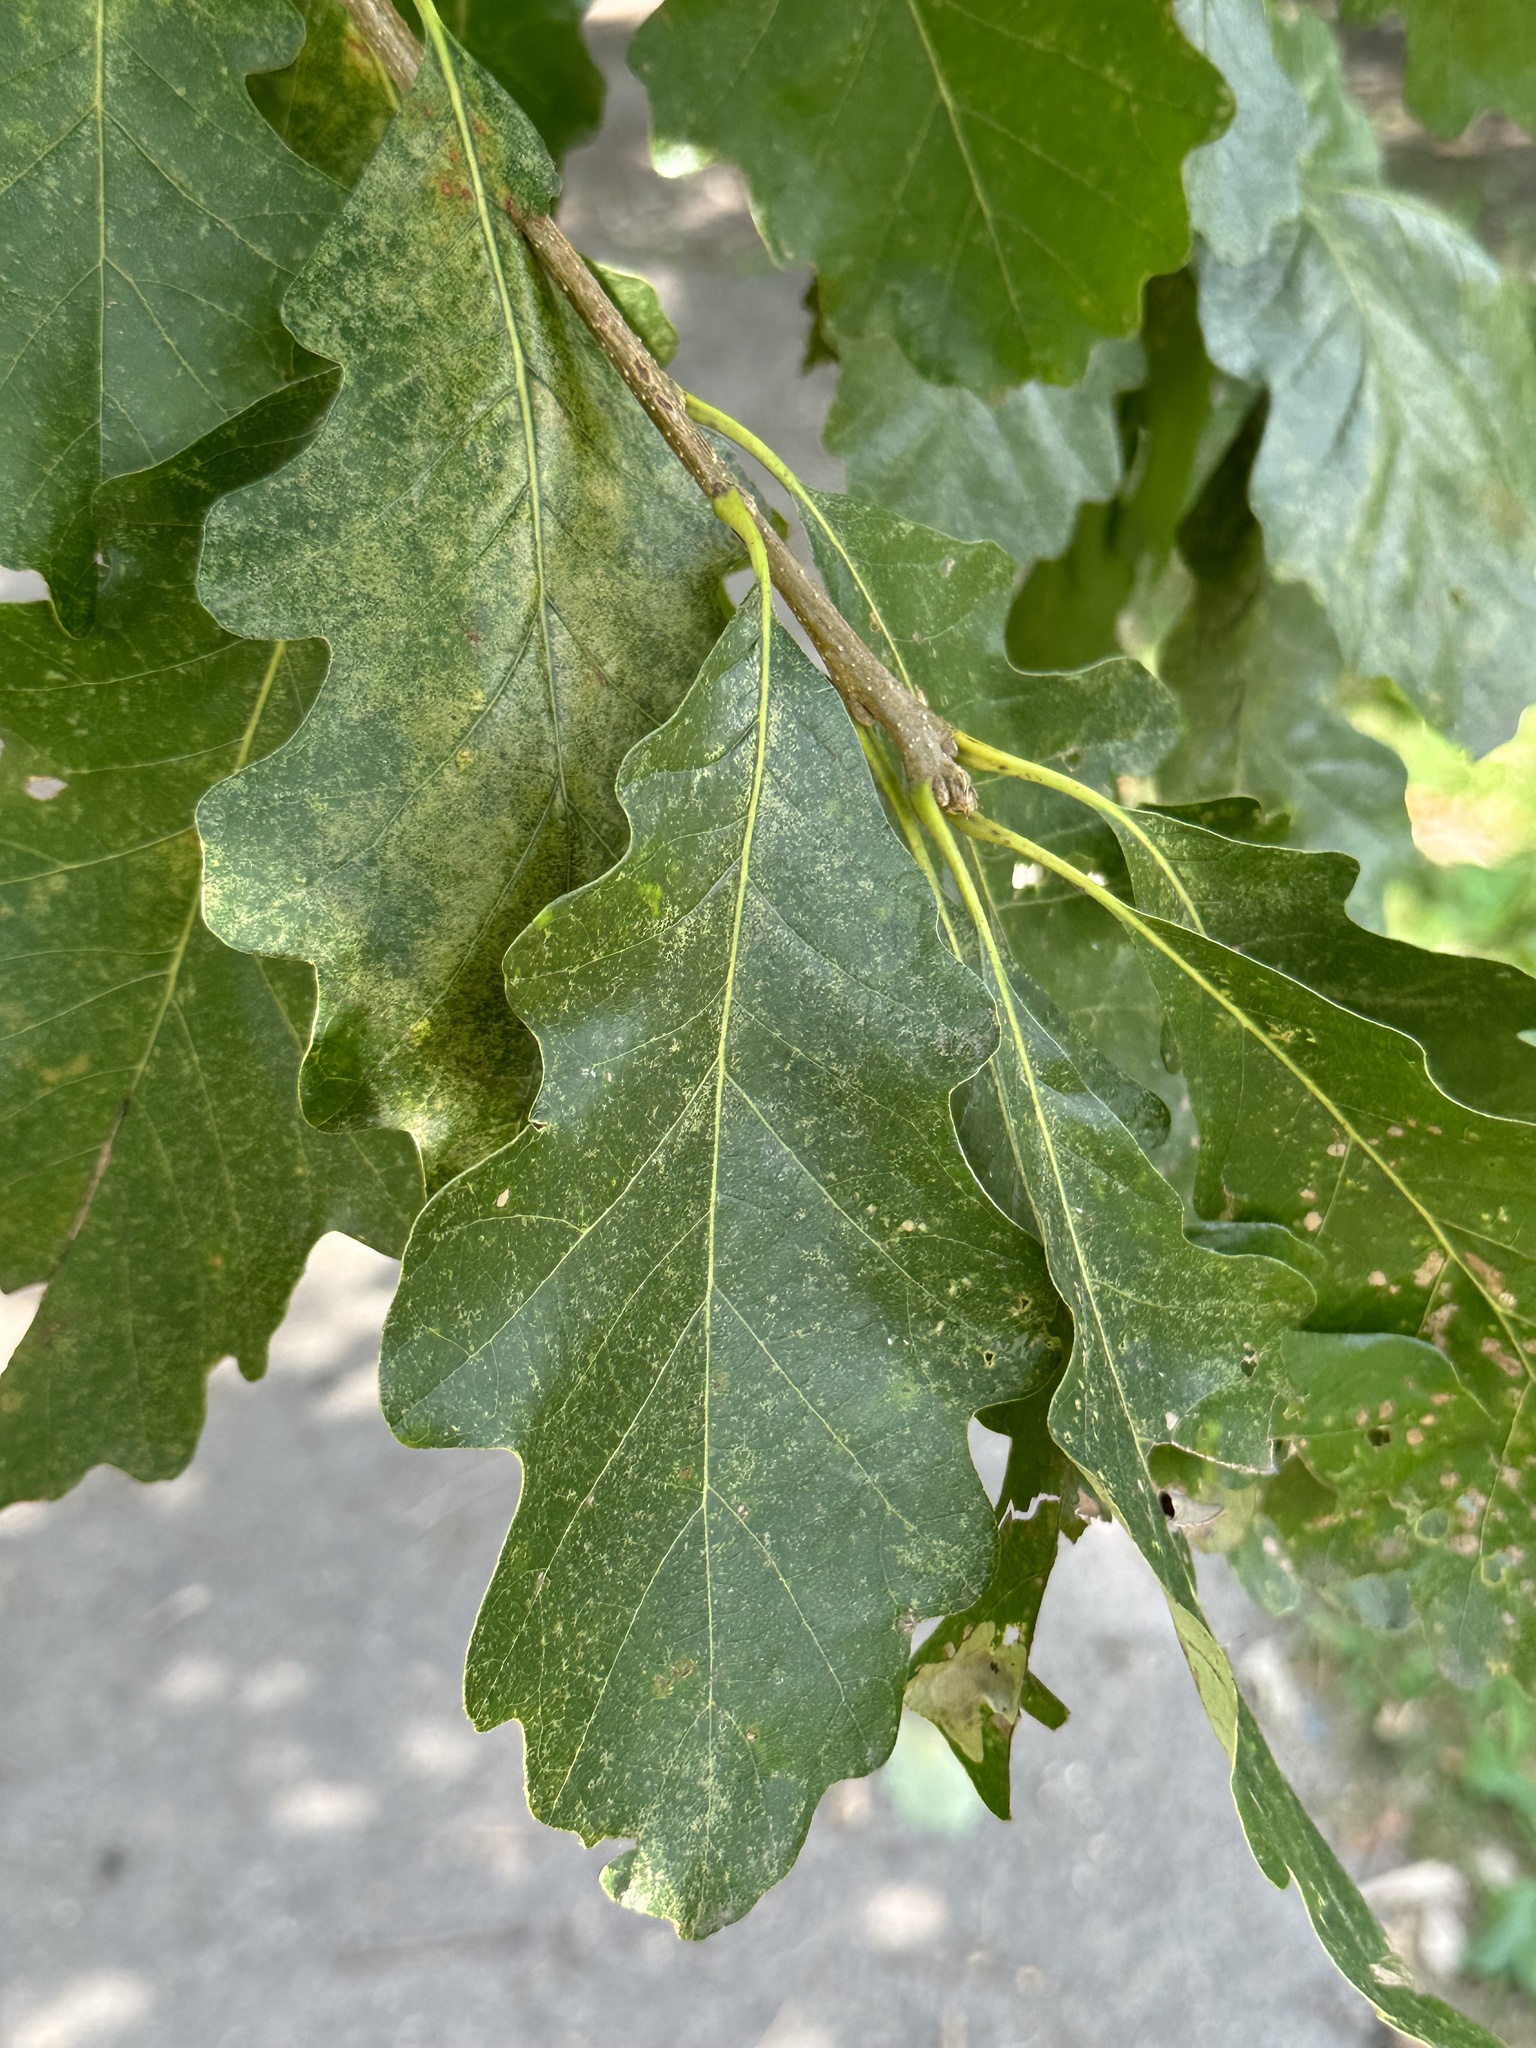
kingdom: Plantae
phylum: Tracheophyta
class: Magnoliopsida
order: Fagales
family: Fagaceae
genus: Quercus
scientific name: Quercus bicolor
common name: Swamp white oak
